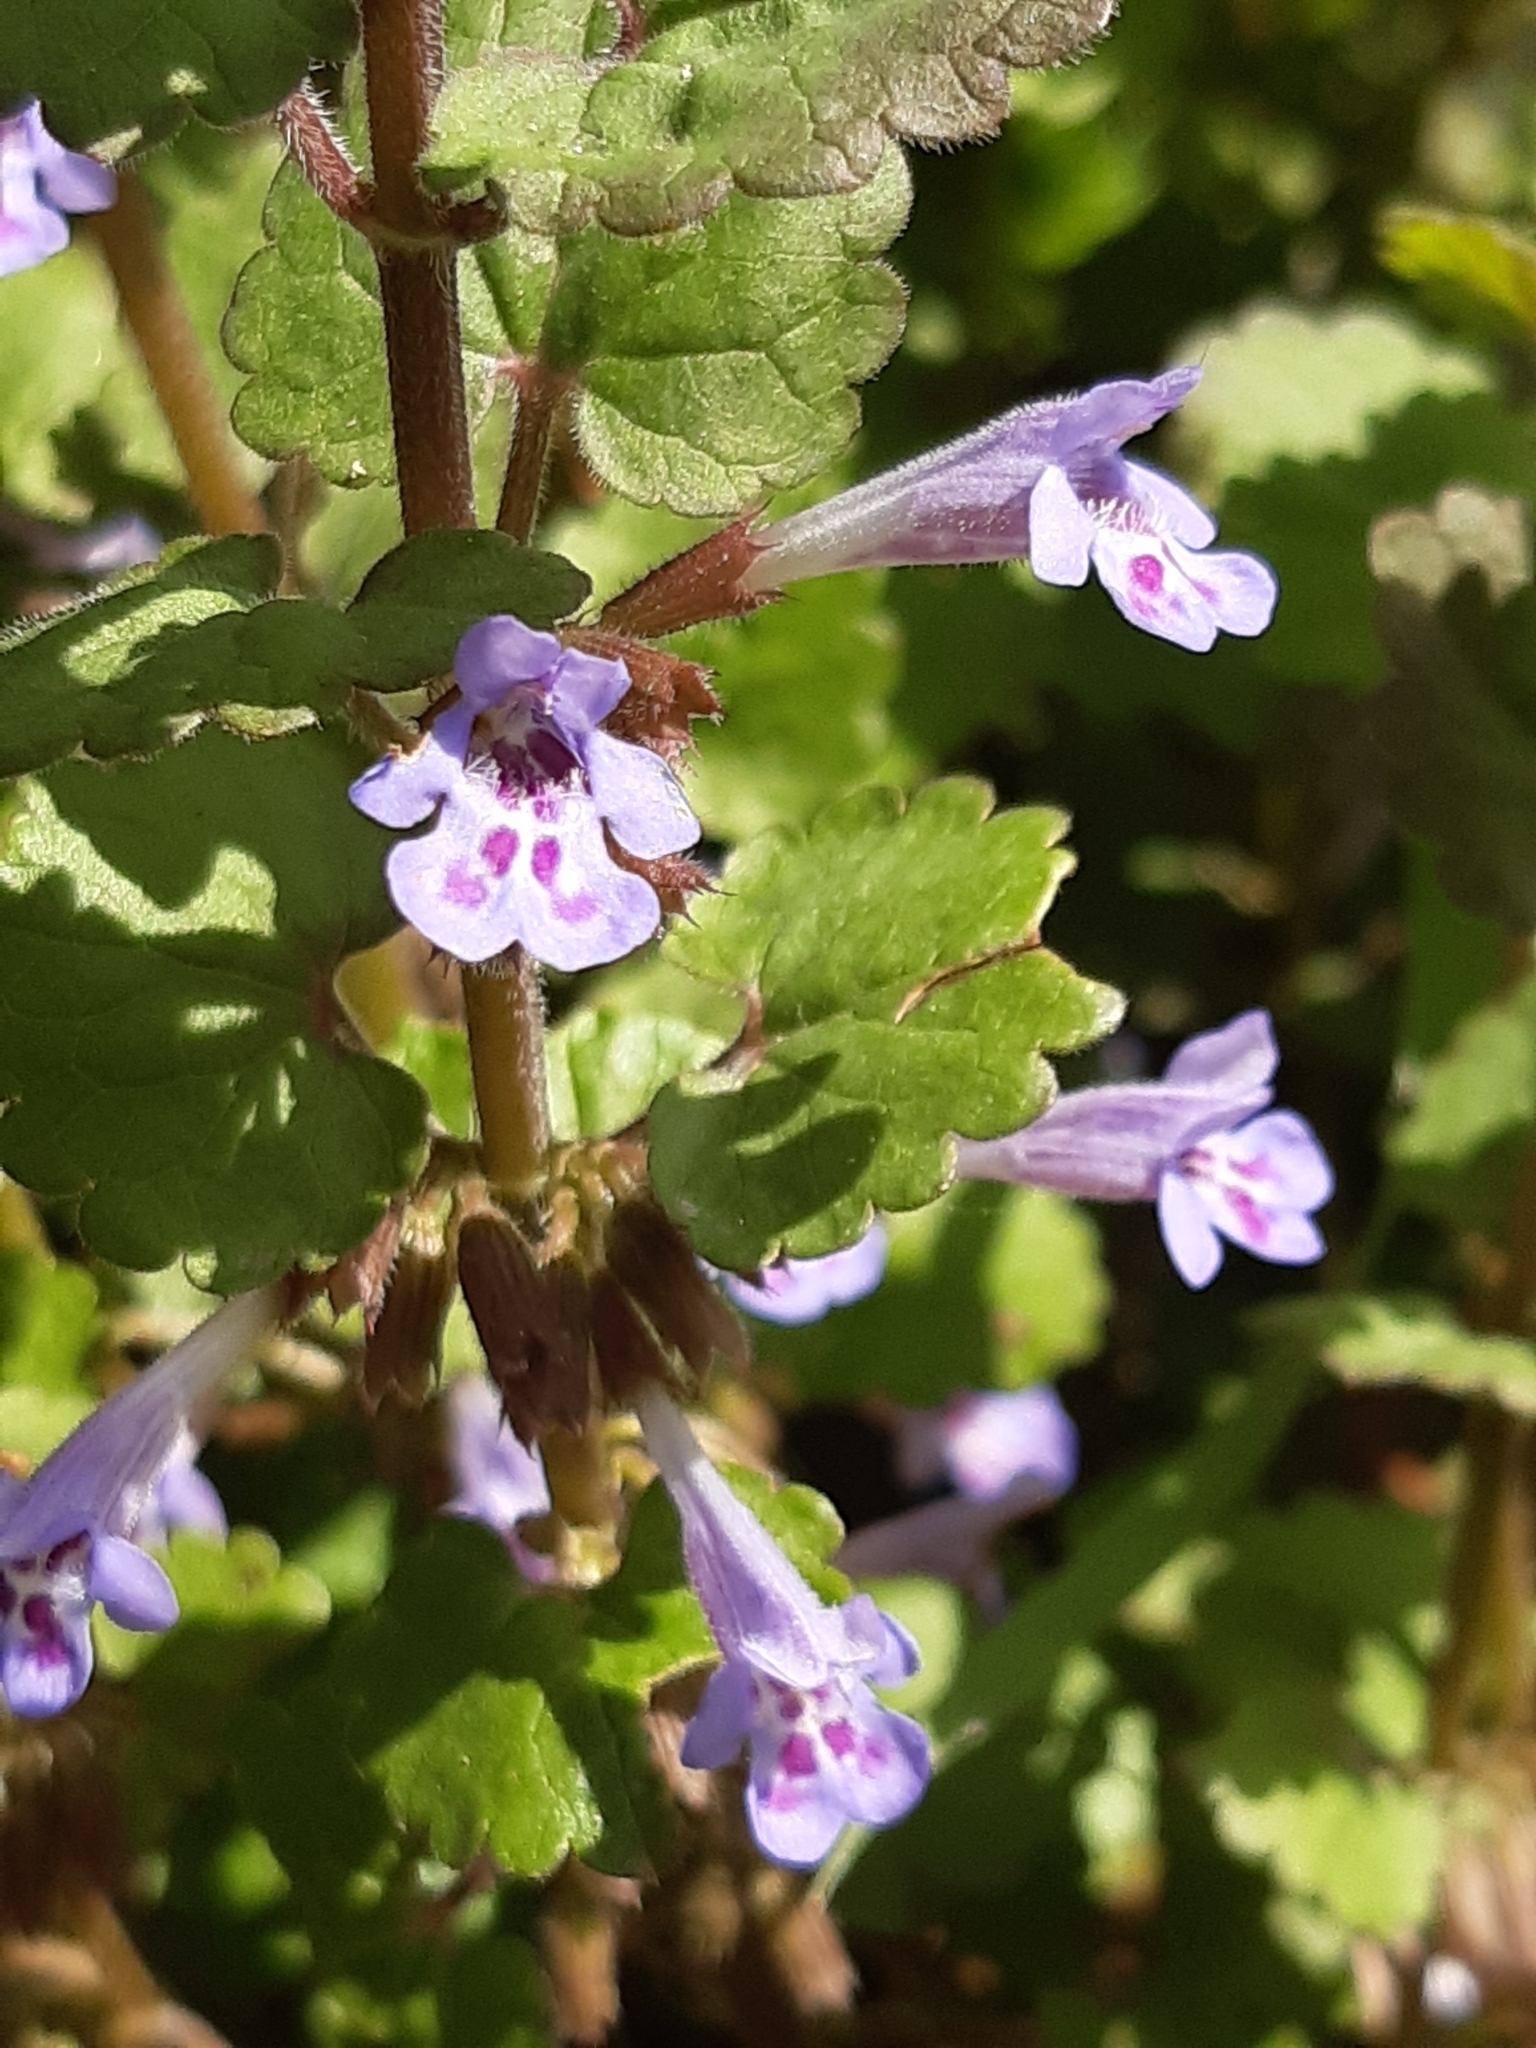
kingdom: Plantae
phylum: Tracheophyta
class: Magnoliopsida
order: Lamiales
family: Lamiaceae
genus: Glechoma
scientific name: Glechoma hederacea
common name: Ground ivy
